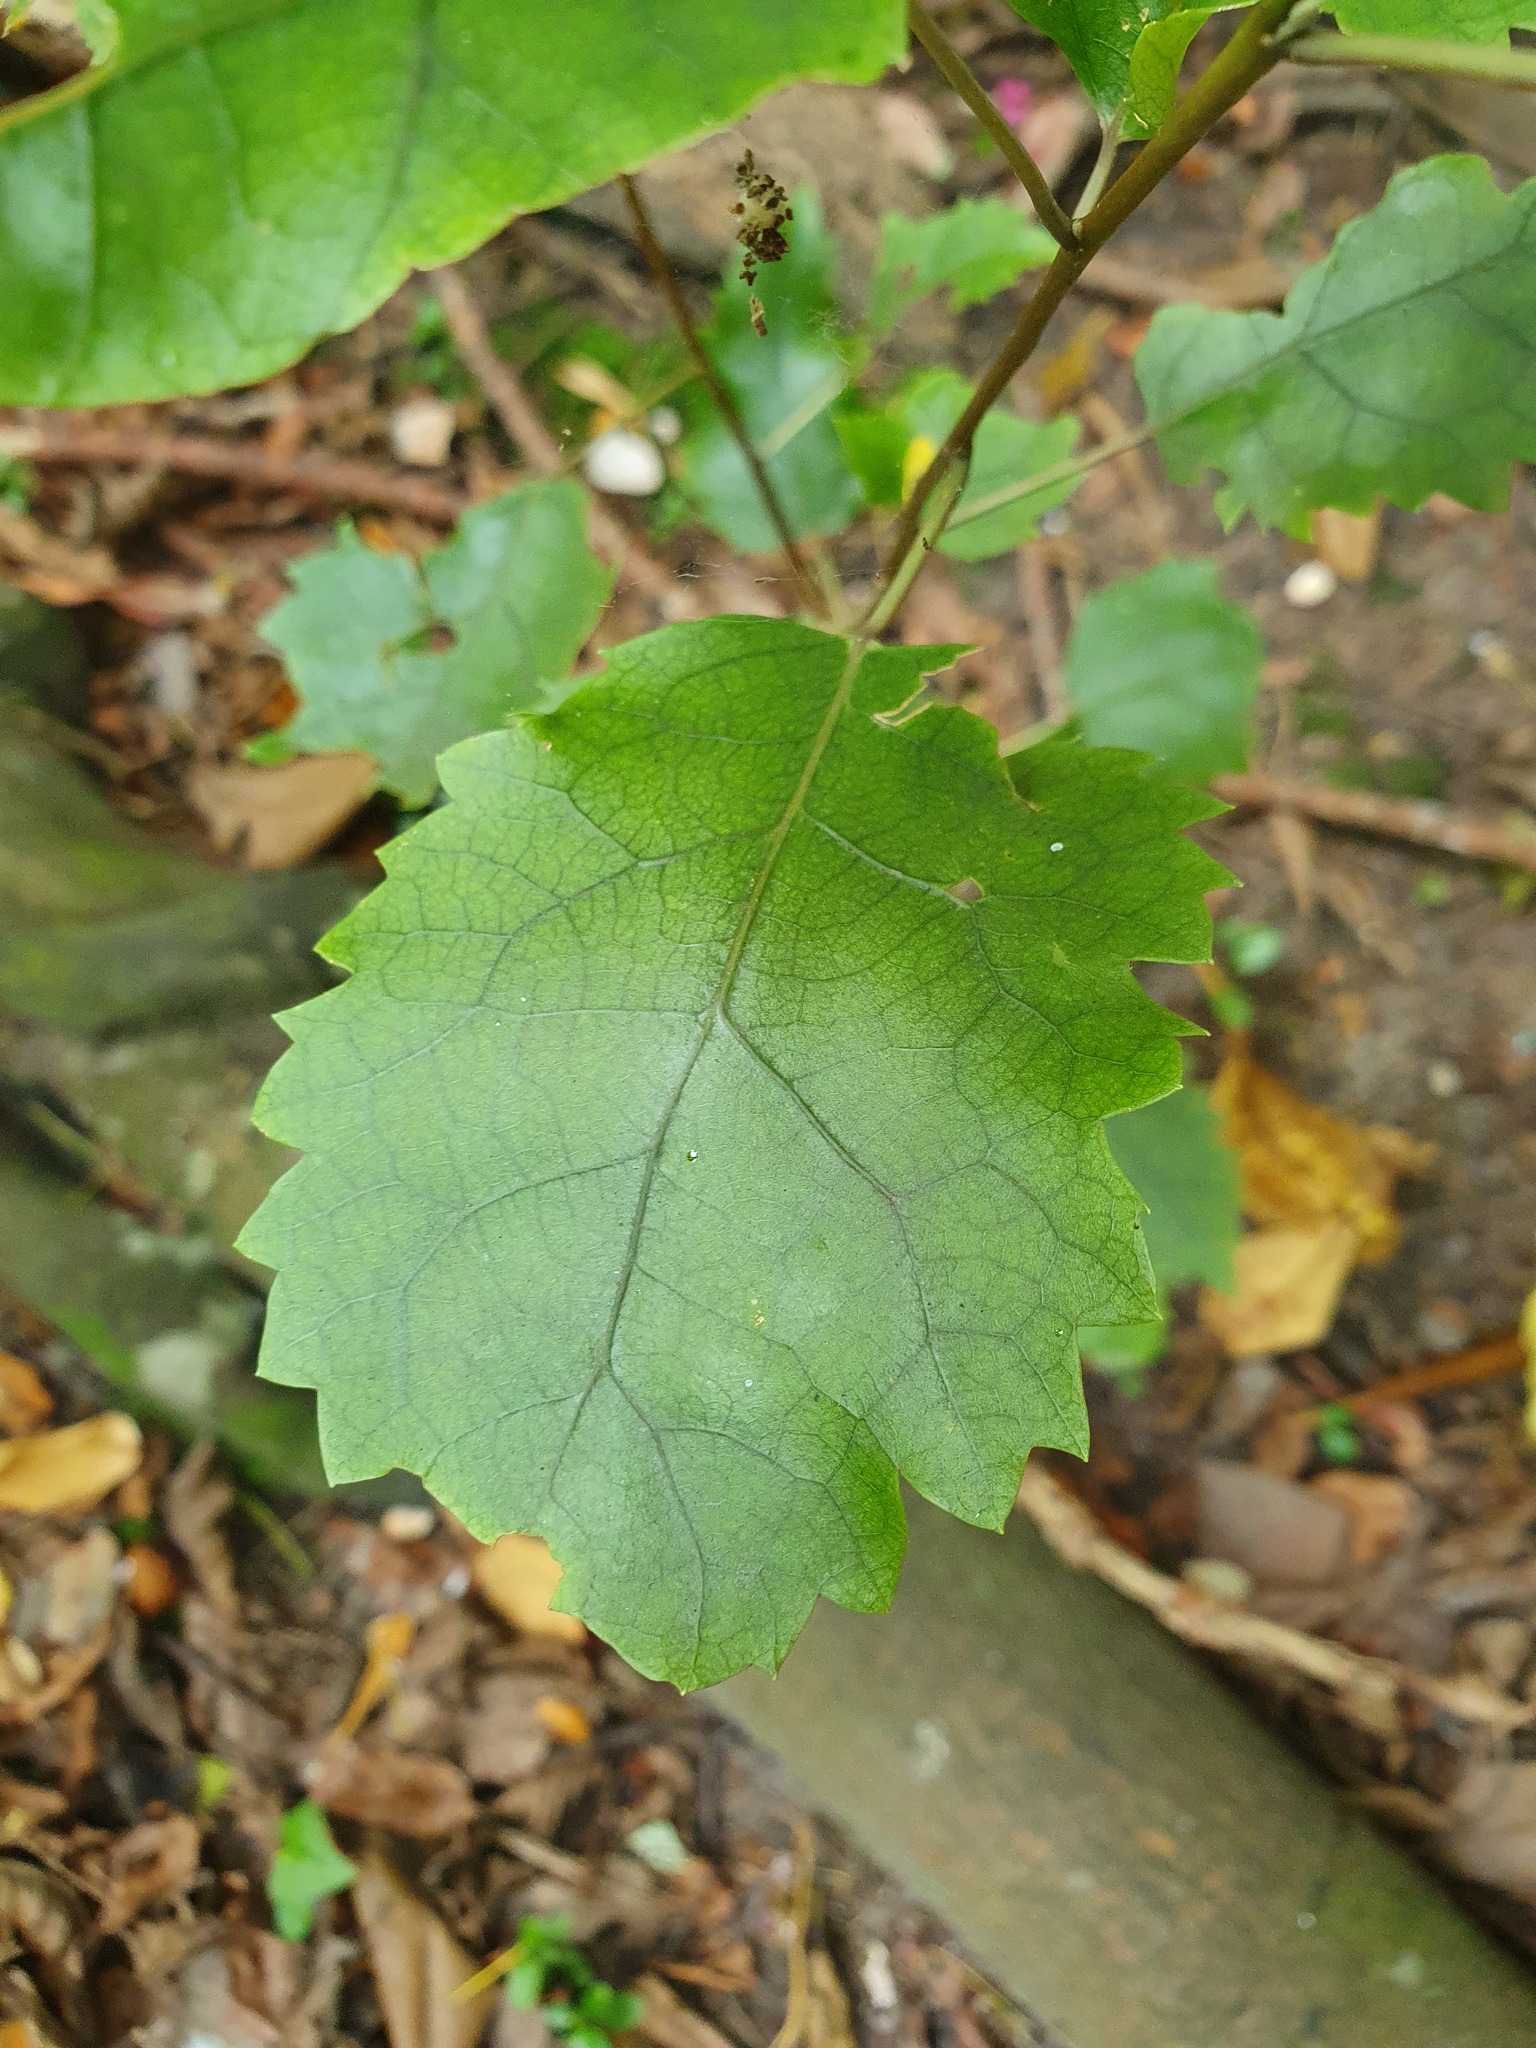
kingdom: Plantae
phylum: Tracheophyta
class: Magnoliopsida
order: Malvales
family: Malvaceae
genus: Hoheria
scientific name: Hoheria populnea
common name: Lacebark
